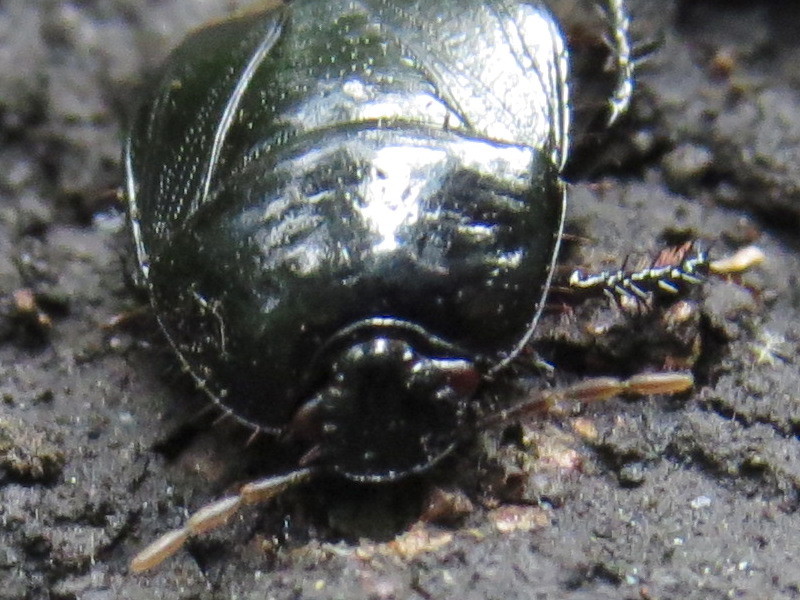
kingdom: Animalia
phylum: Arthropoda
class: Insecta
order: Hemiptera
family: Cydnidae
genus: Pangaeus
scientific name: Pangaeus bilineatus
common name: Burrower bug
